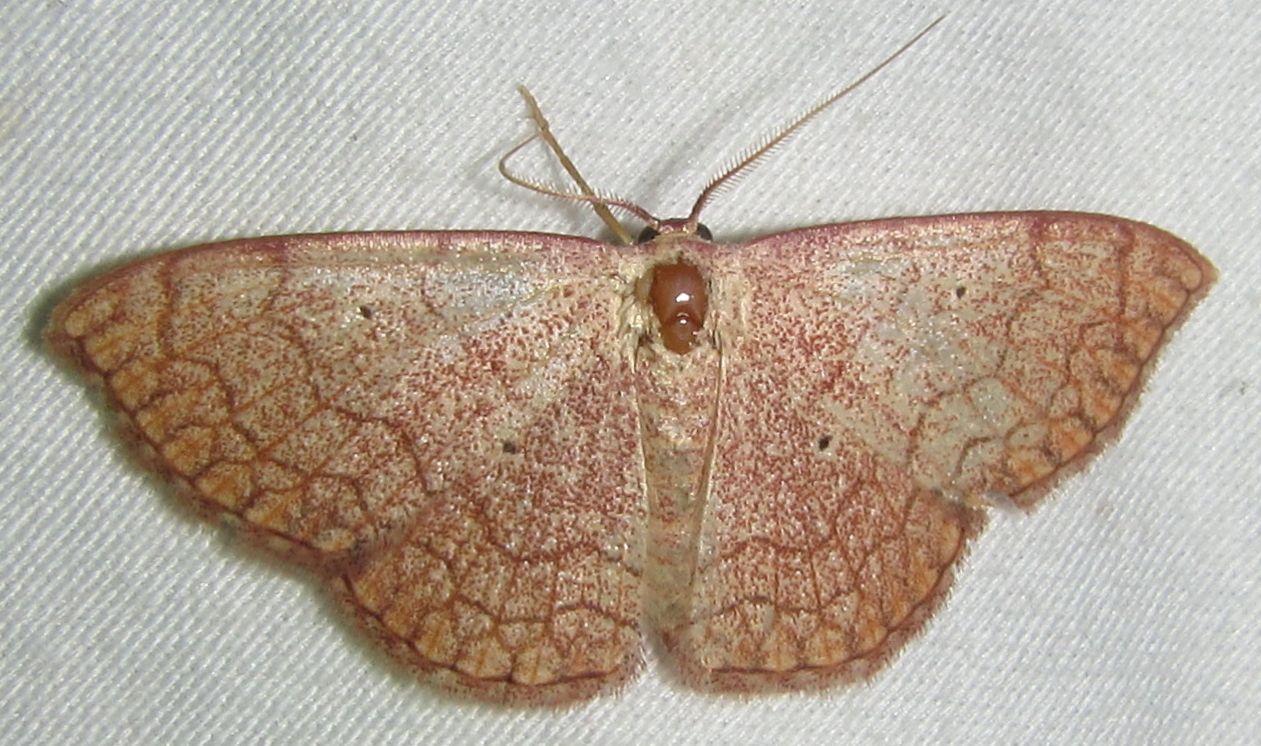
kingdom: Animalia
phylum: Arthropoda
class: Insecta
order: Lepidoptera
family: Geometridae
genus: Isoplenia
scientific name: Isoplenia trisinuata
